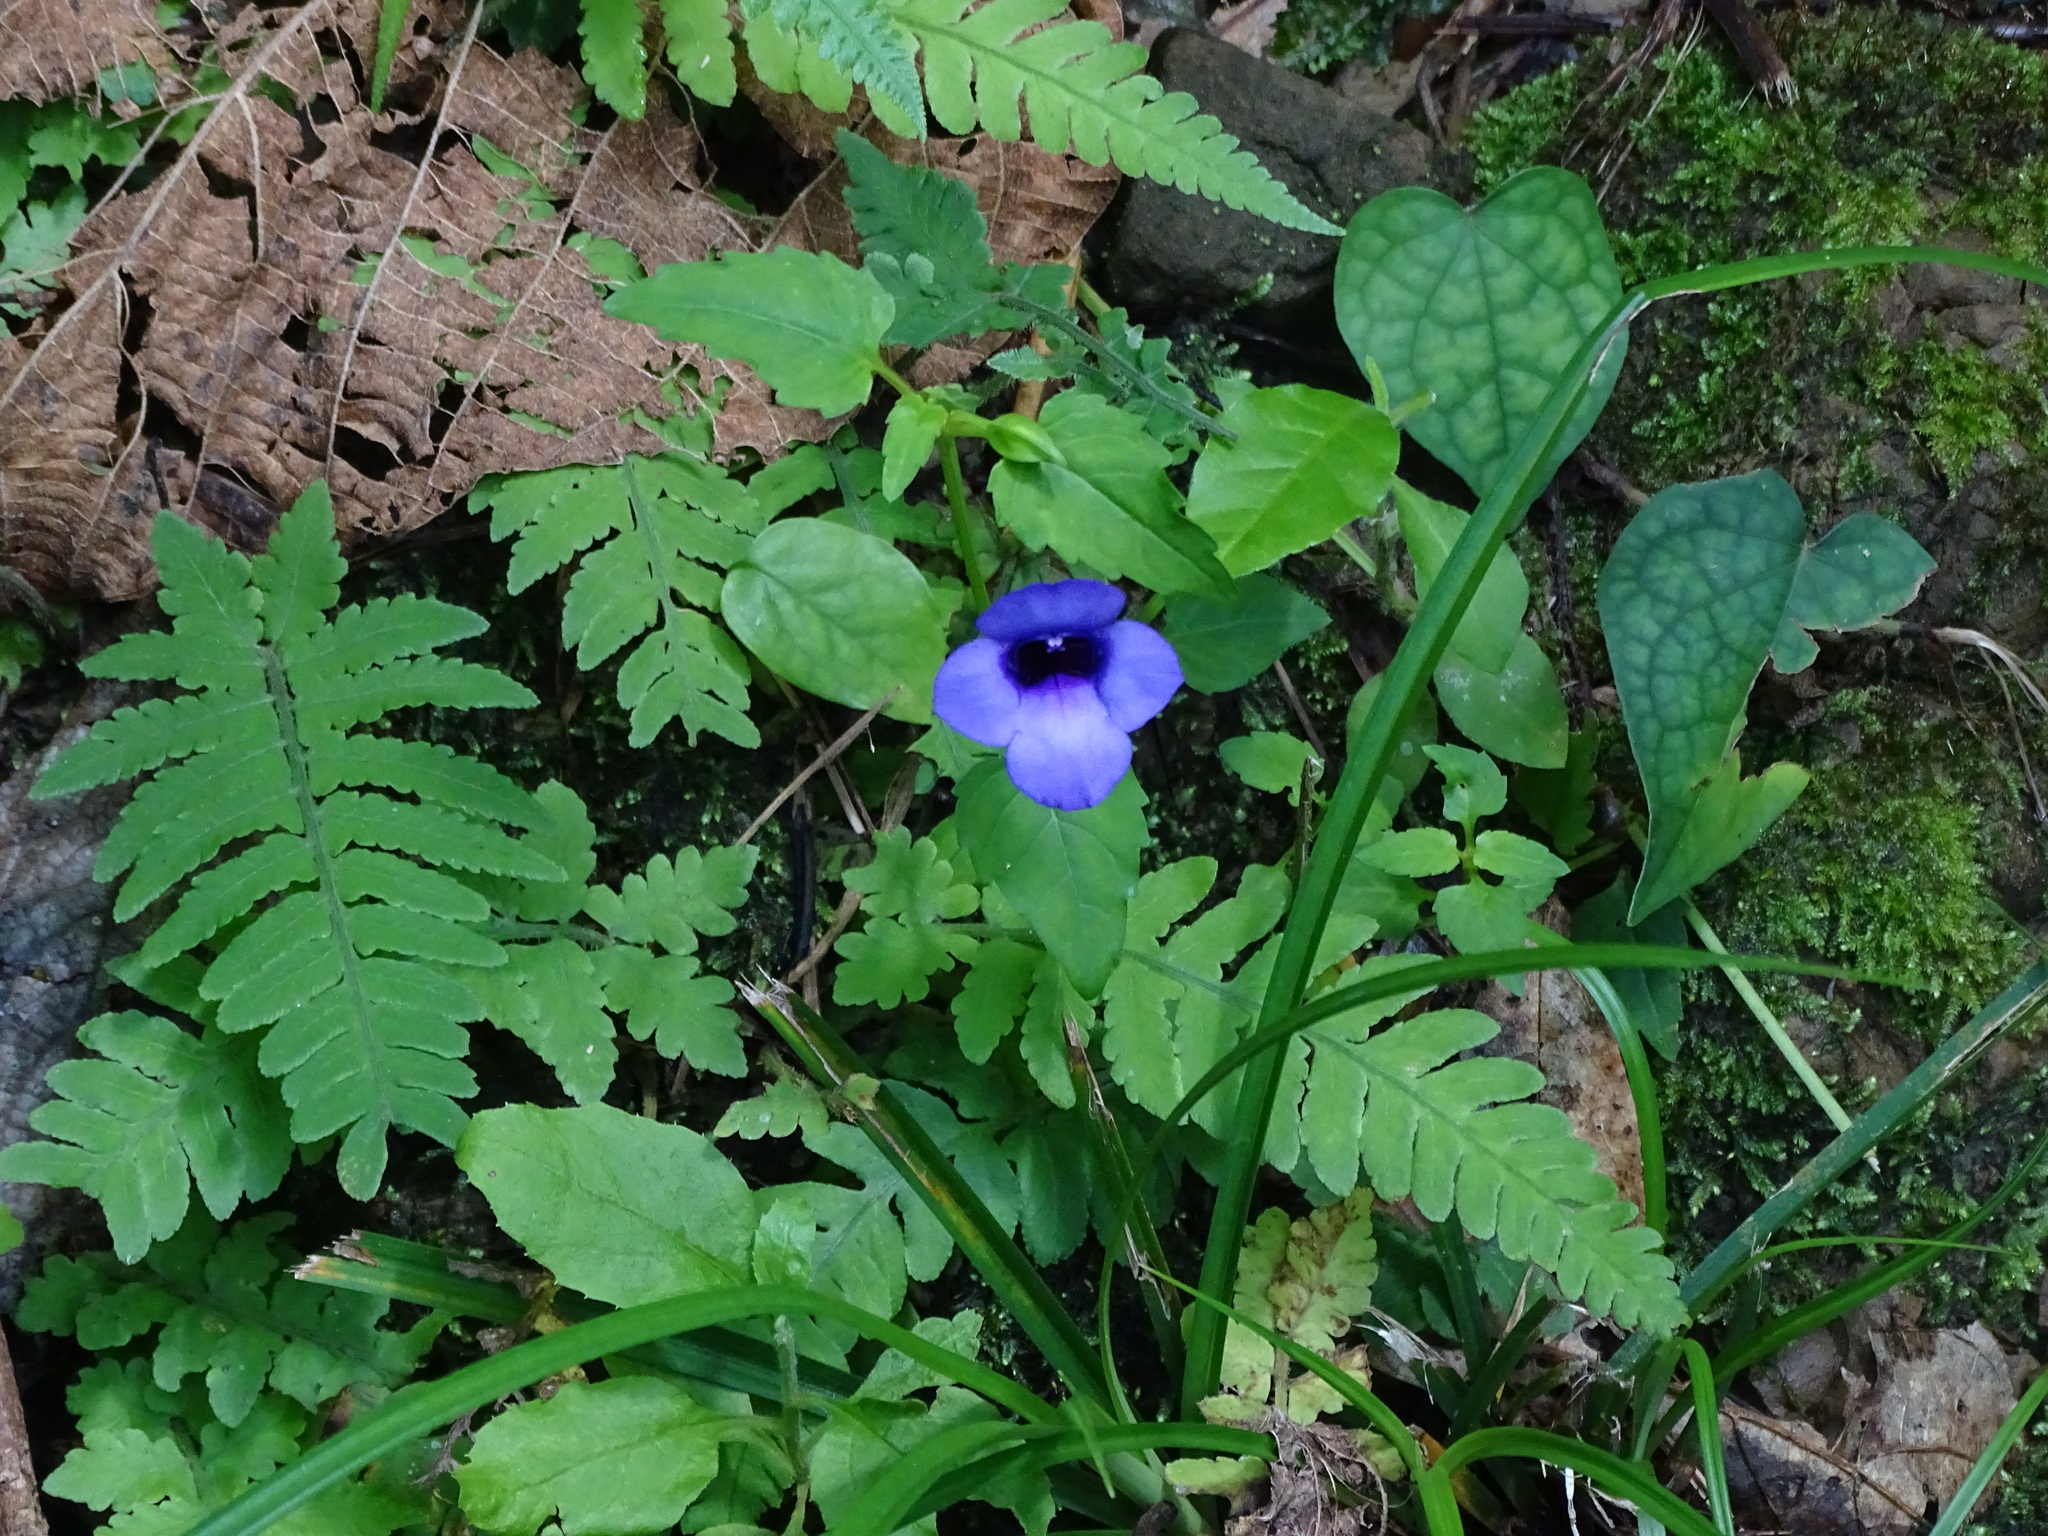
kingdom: Plantae
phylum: Tracheophyta
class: Magnoliopsida
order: Lamiales
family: Linderniaceae
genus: Torenia
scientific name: Torenia concolor
